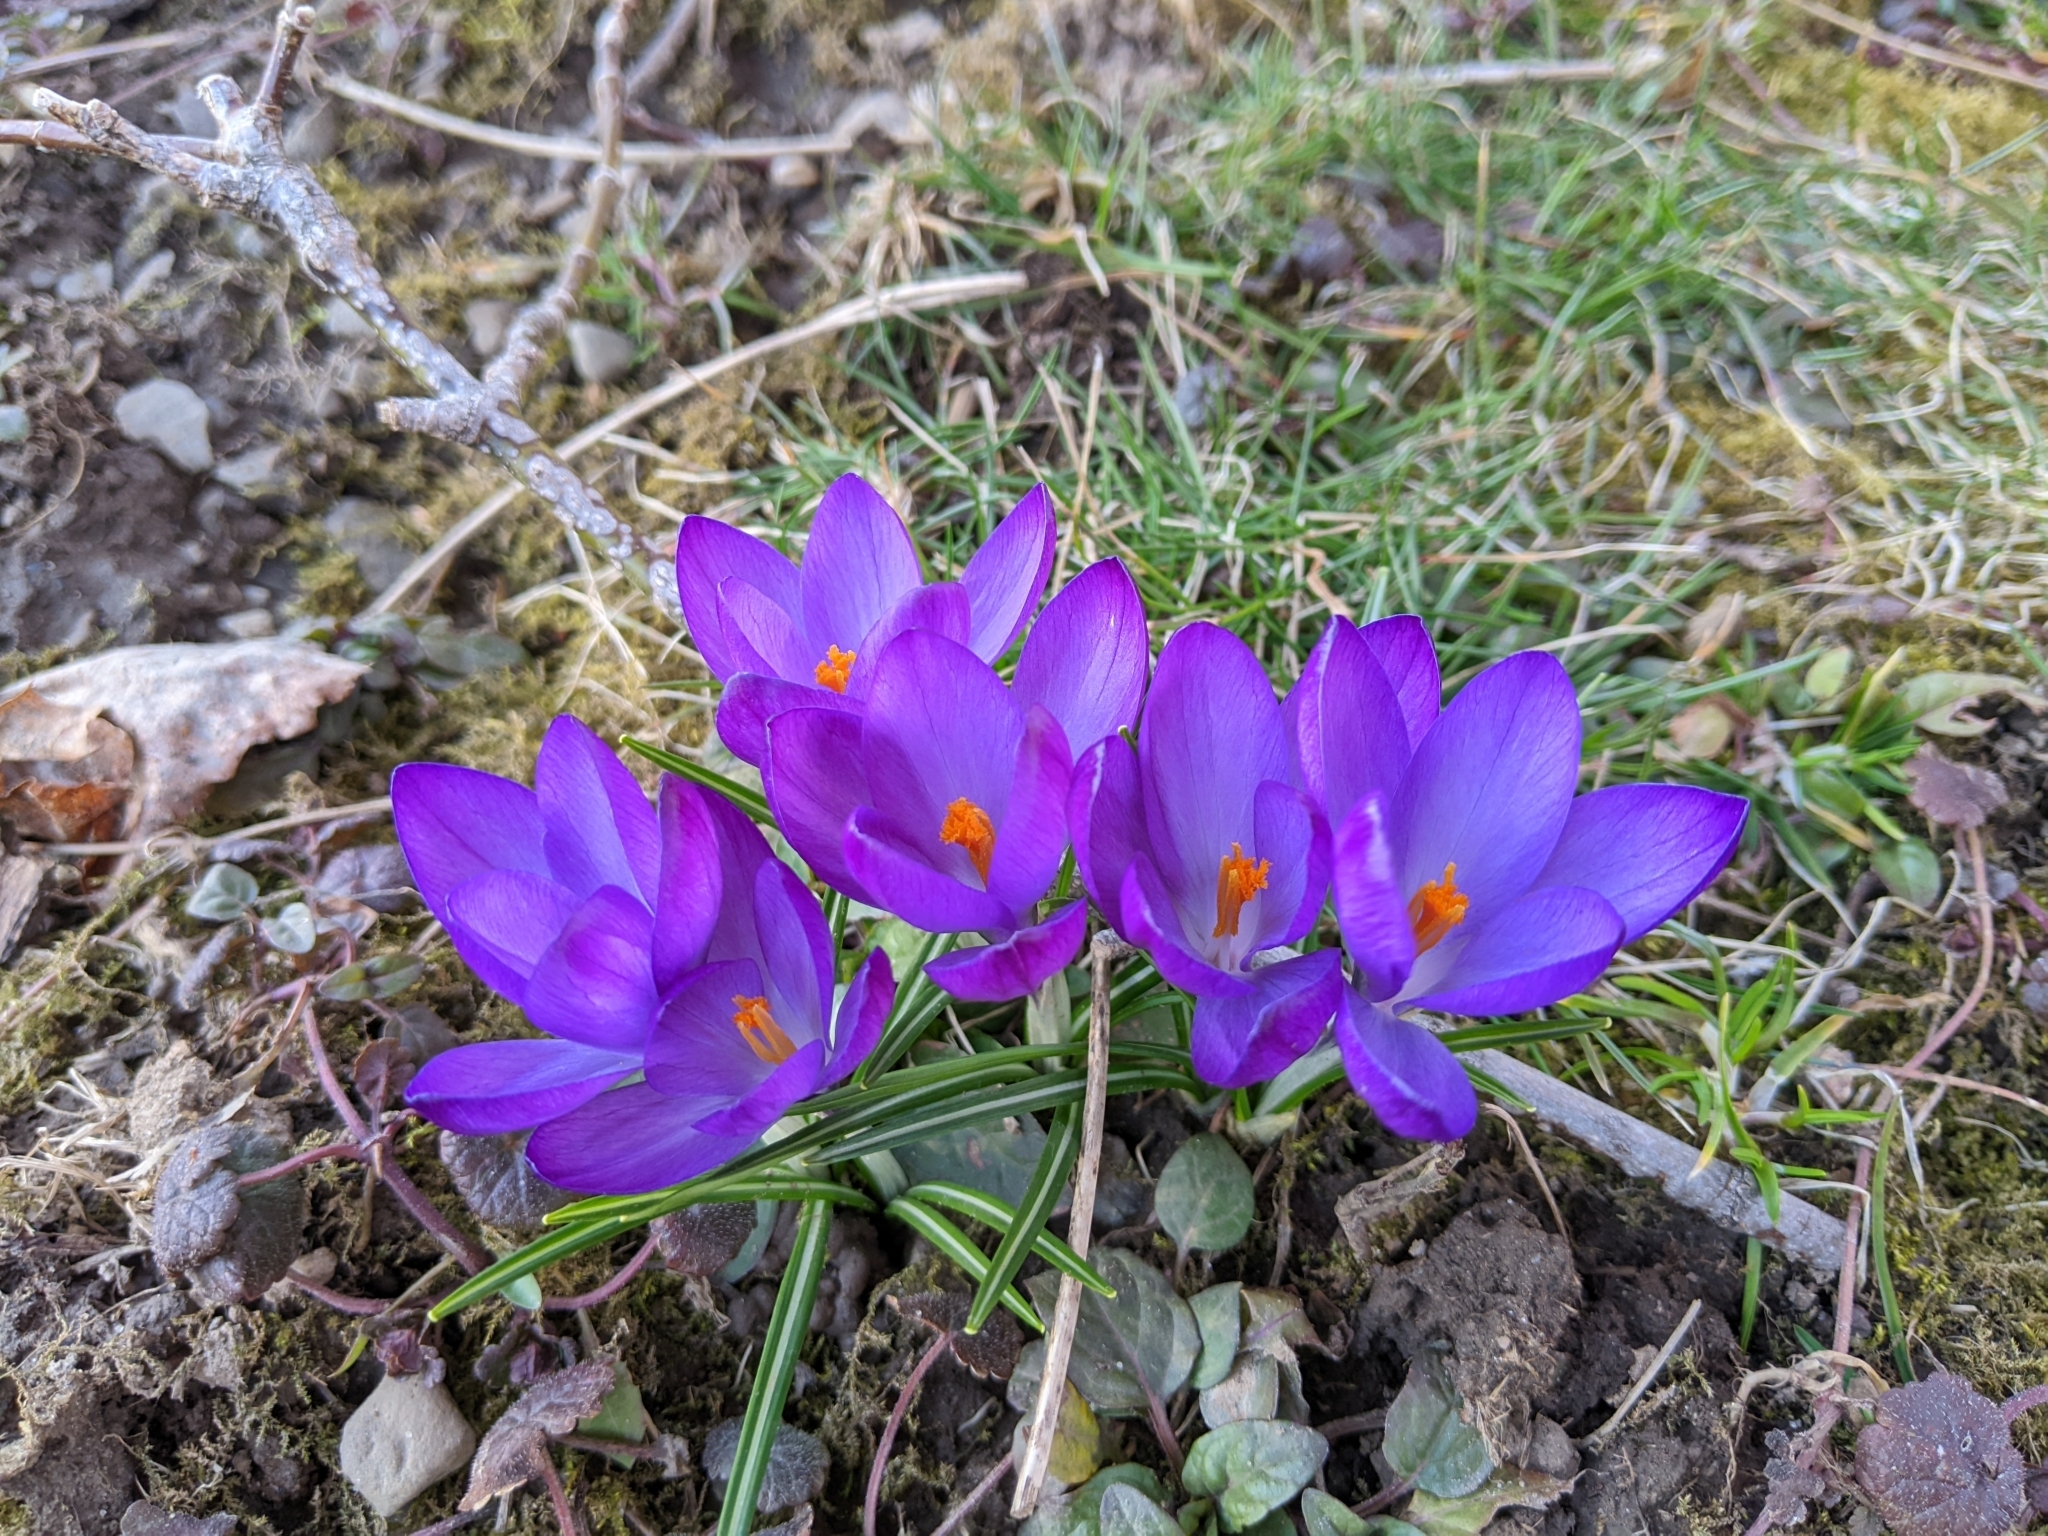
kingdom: Plantae
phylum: Tracheophyta
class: Liliopsida
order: Asparagales
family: Iridaceae
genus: Crocus
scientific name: Crocus tommasinianus
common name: Early crocus
